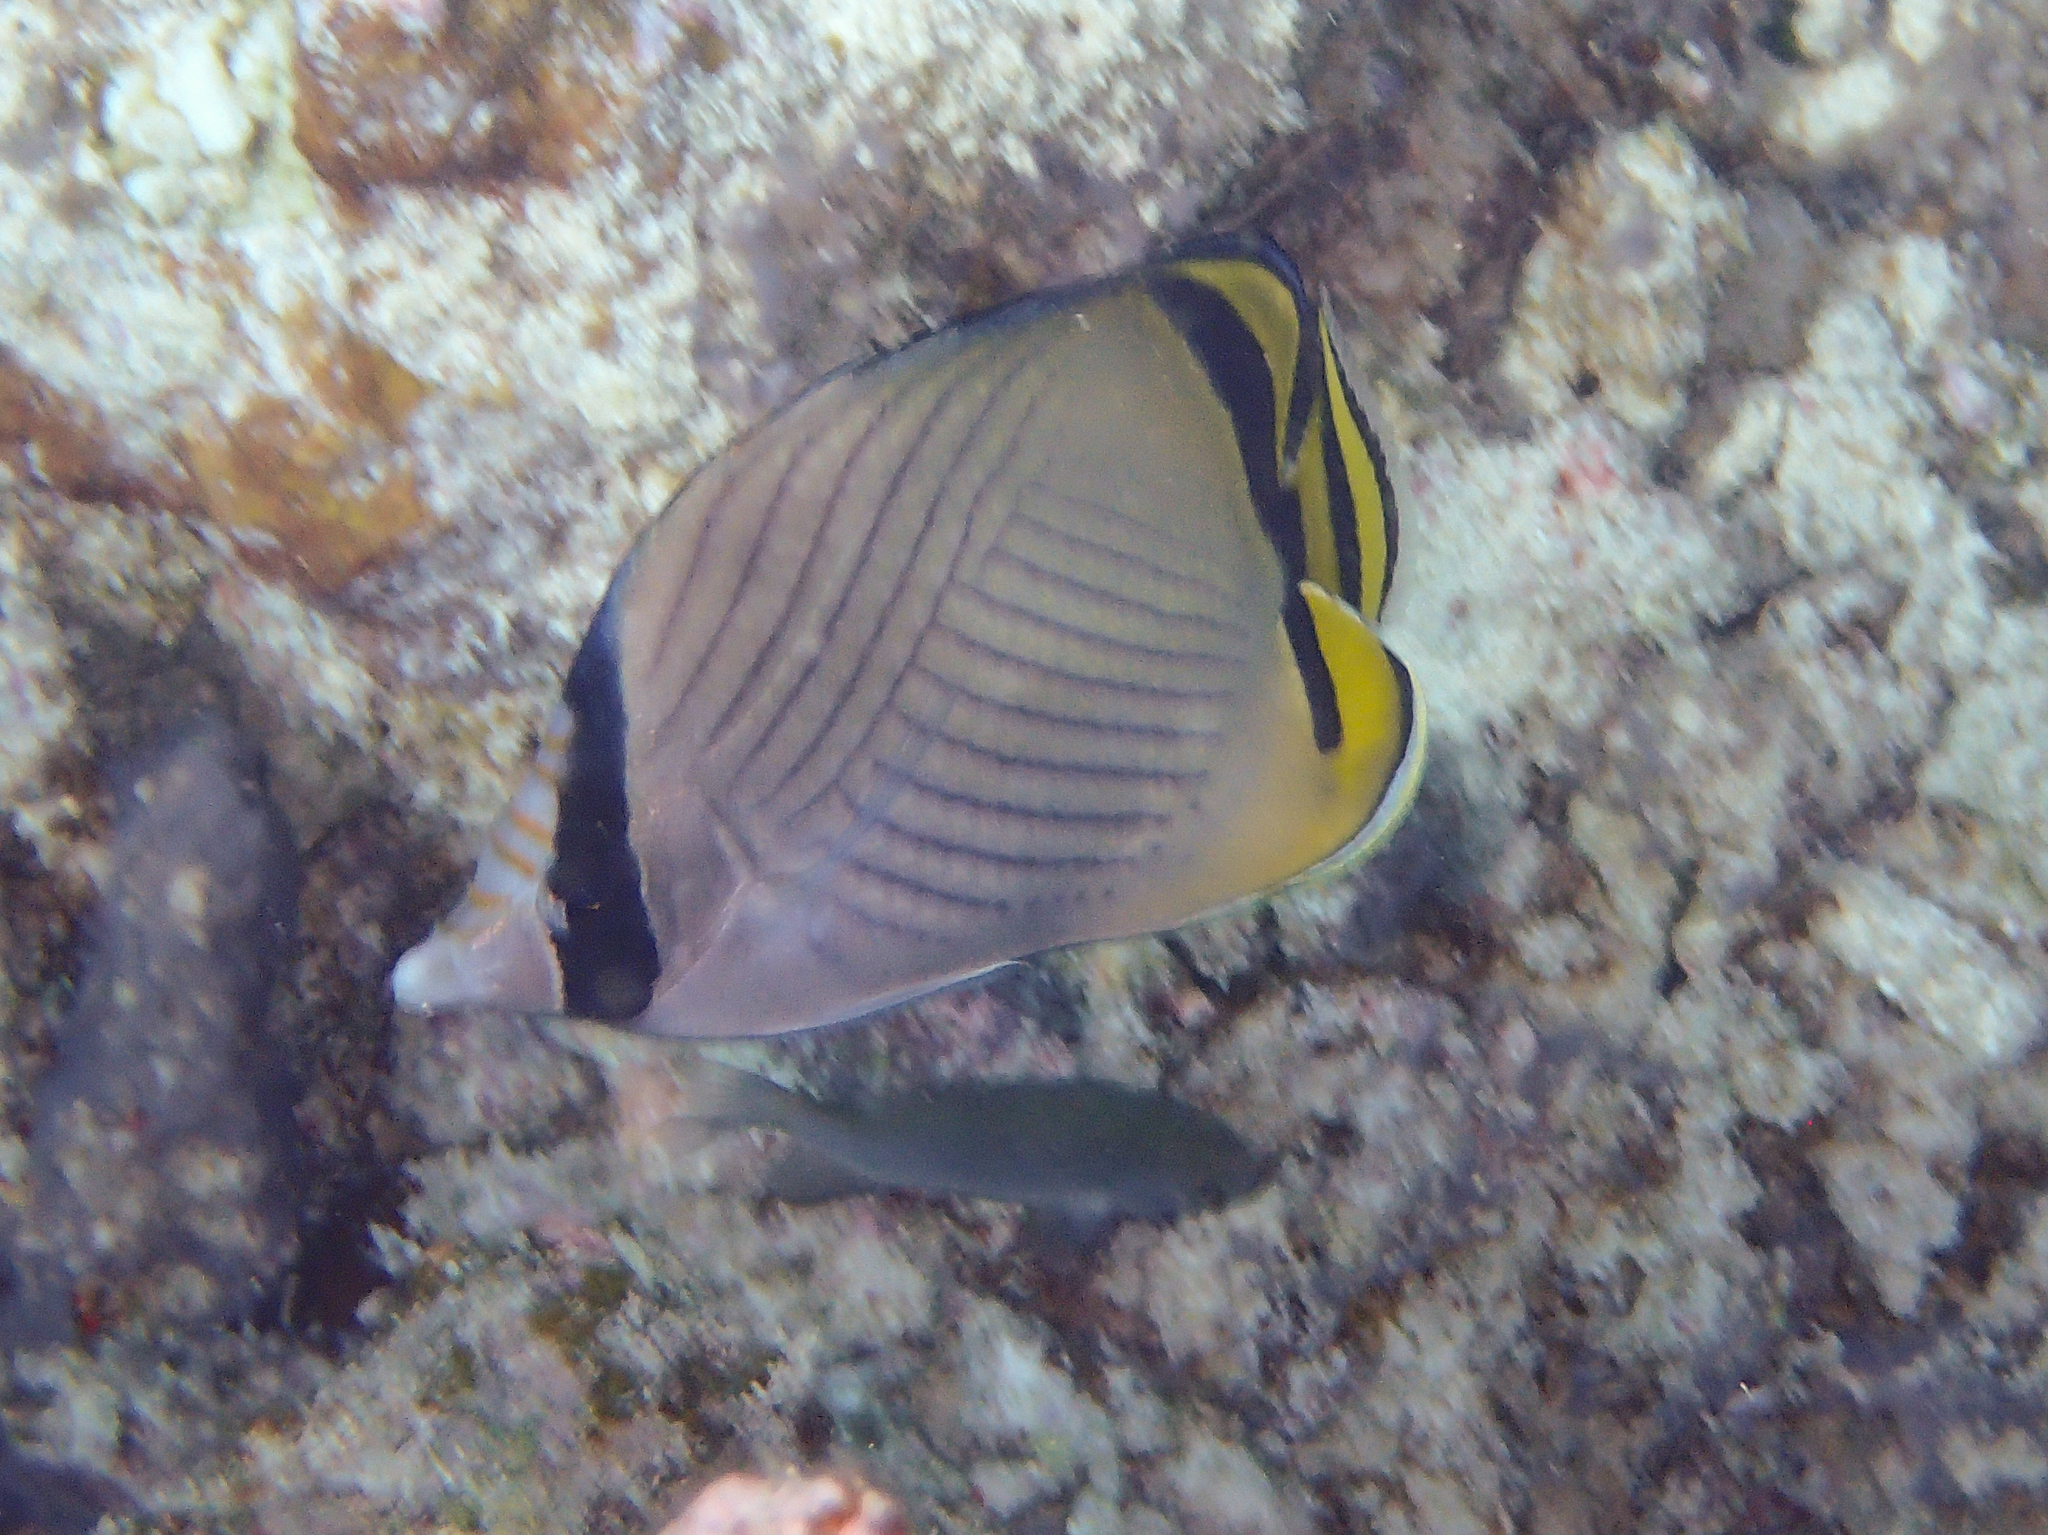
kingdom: Animalia
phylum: Chordata
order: Perciformes
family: Chaetodontidae
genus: Chaetodon
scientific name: Chaetodon vagabundus
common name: Vagabond butterflyfish
